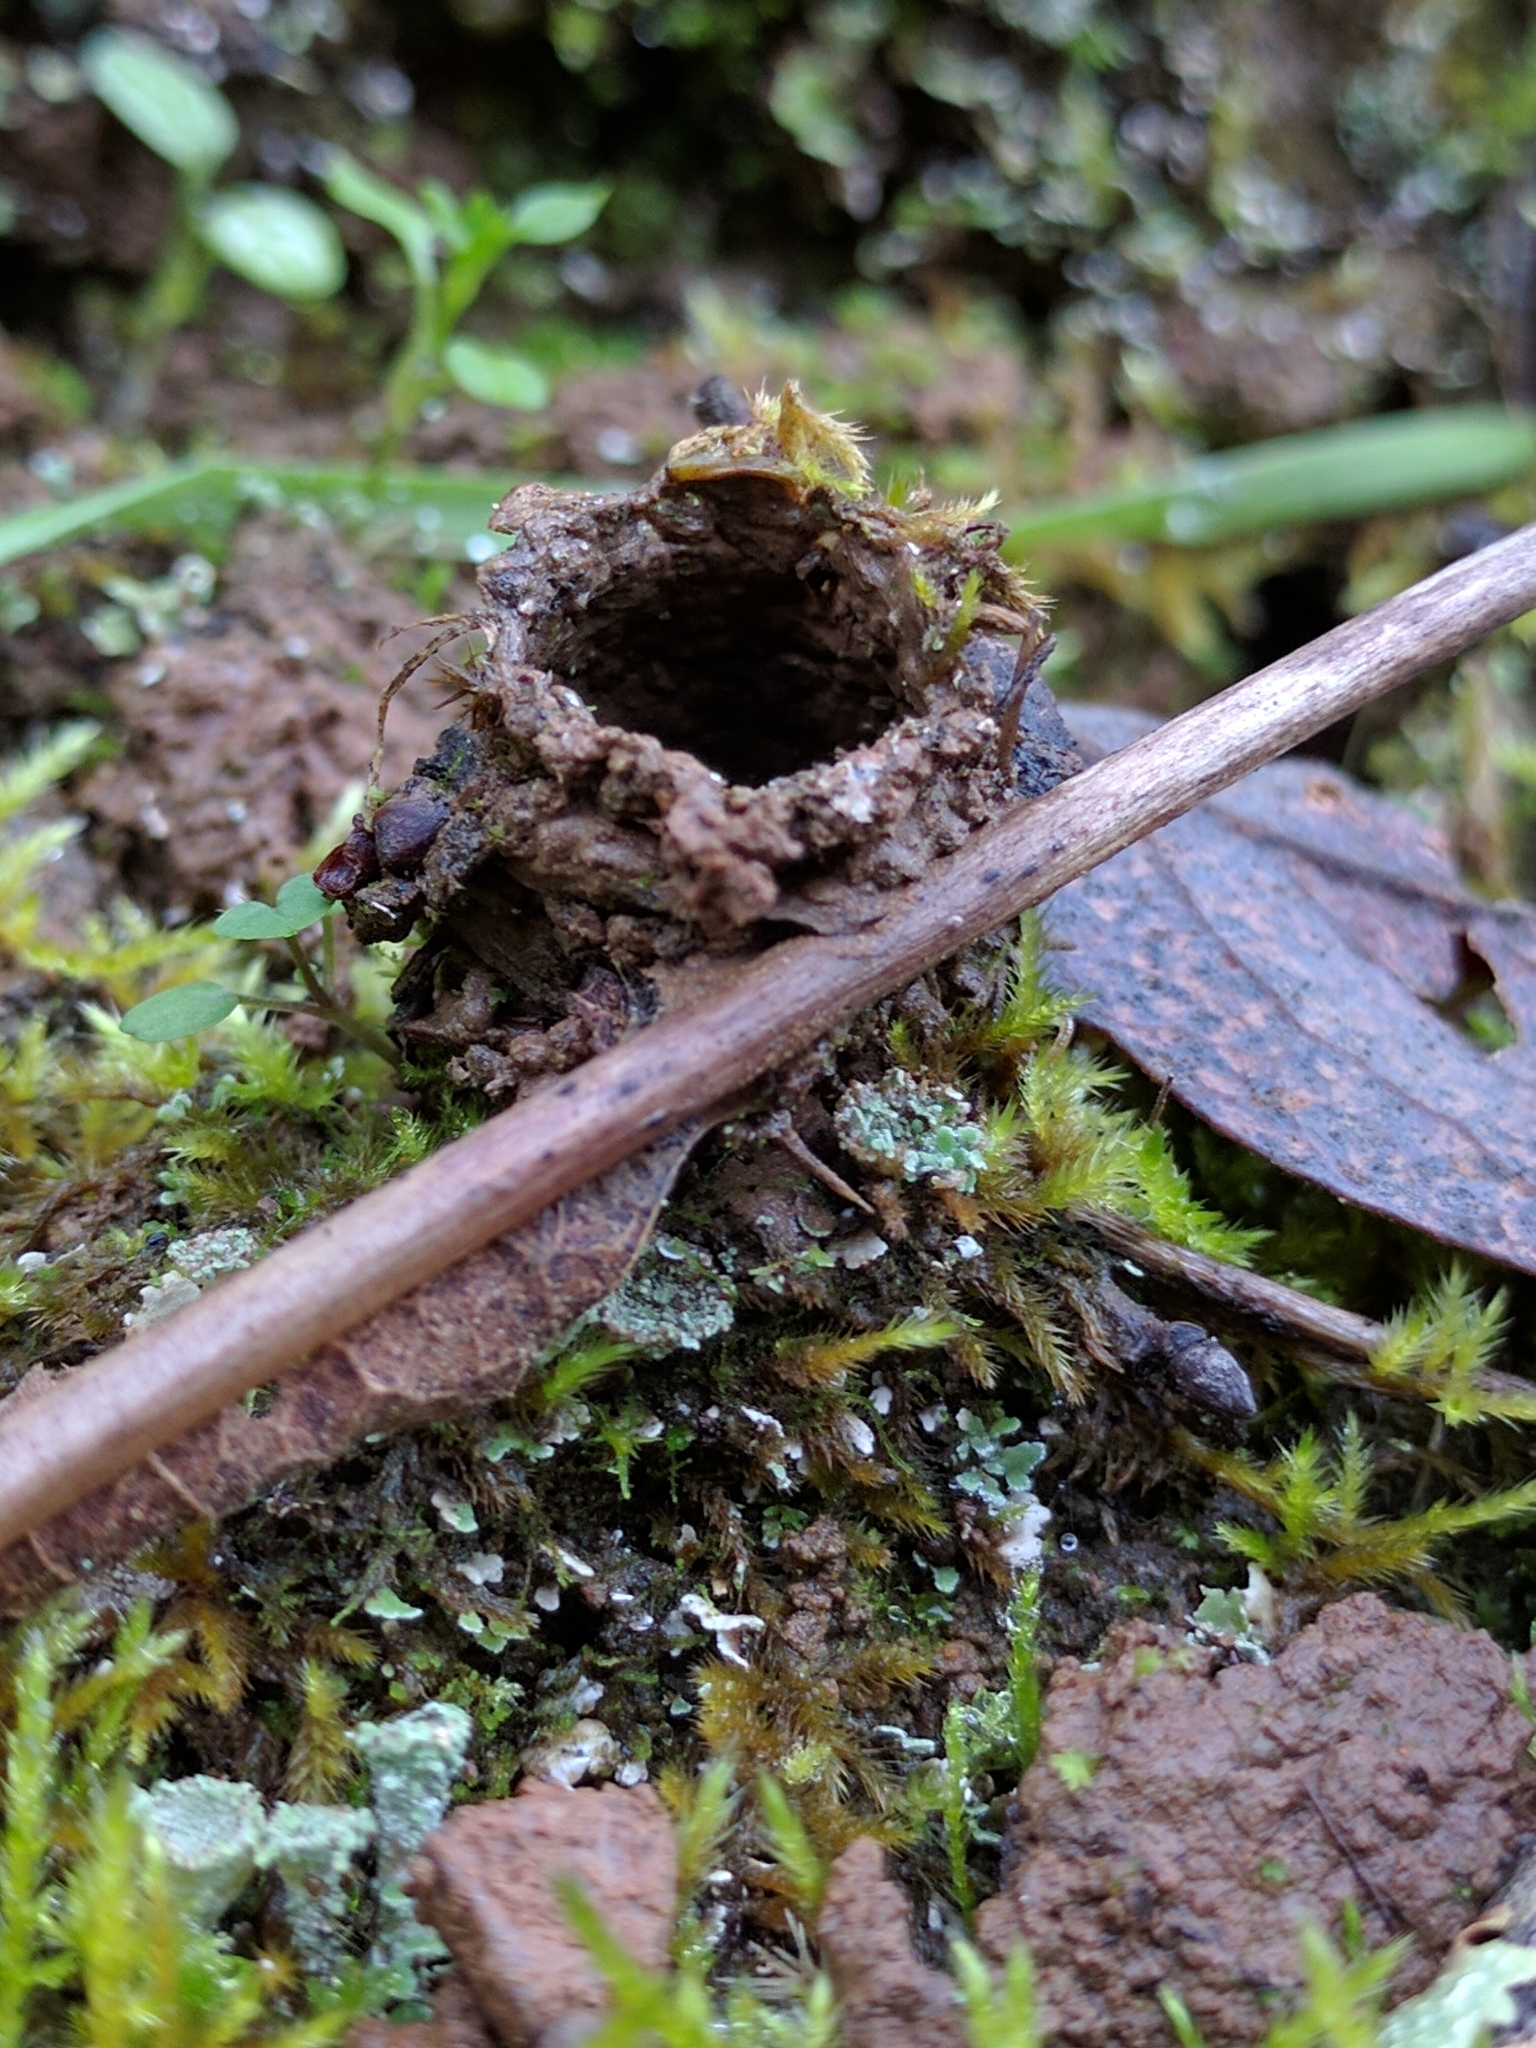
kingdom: Animalia
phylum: Arthropoda
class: Arachnida
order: Araneae
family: Antrodiaetidae
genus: Atypoides
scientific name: Atypoides riversi
